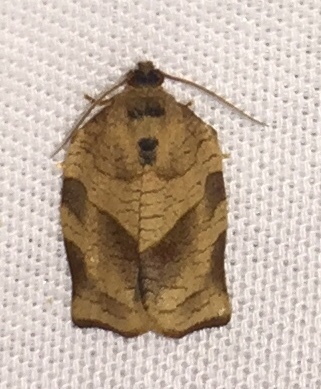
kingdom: Animalia
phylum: Arthropoda
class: Insecta
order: Lepidoptera
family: Tortricidae
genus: Choristoneura
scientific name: Choristoneura rosaceana
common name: Oblique-banded leafroller moth
